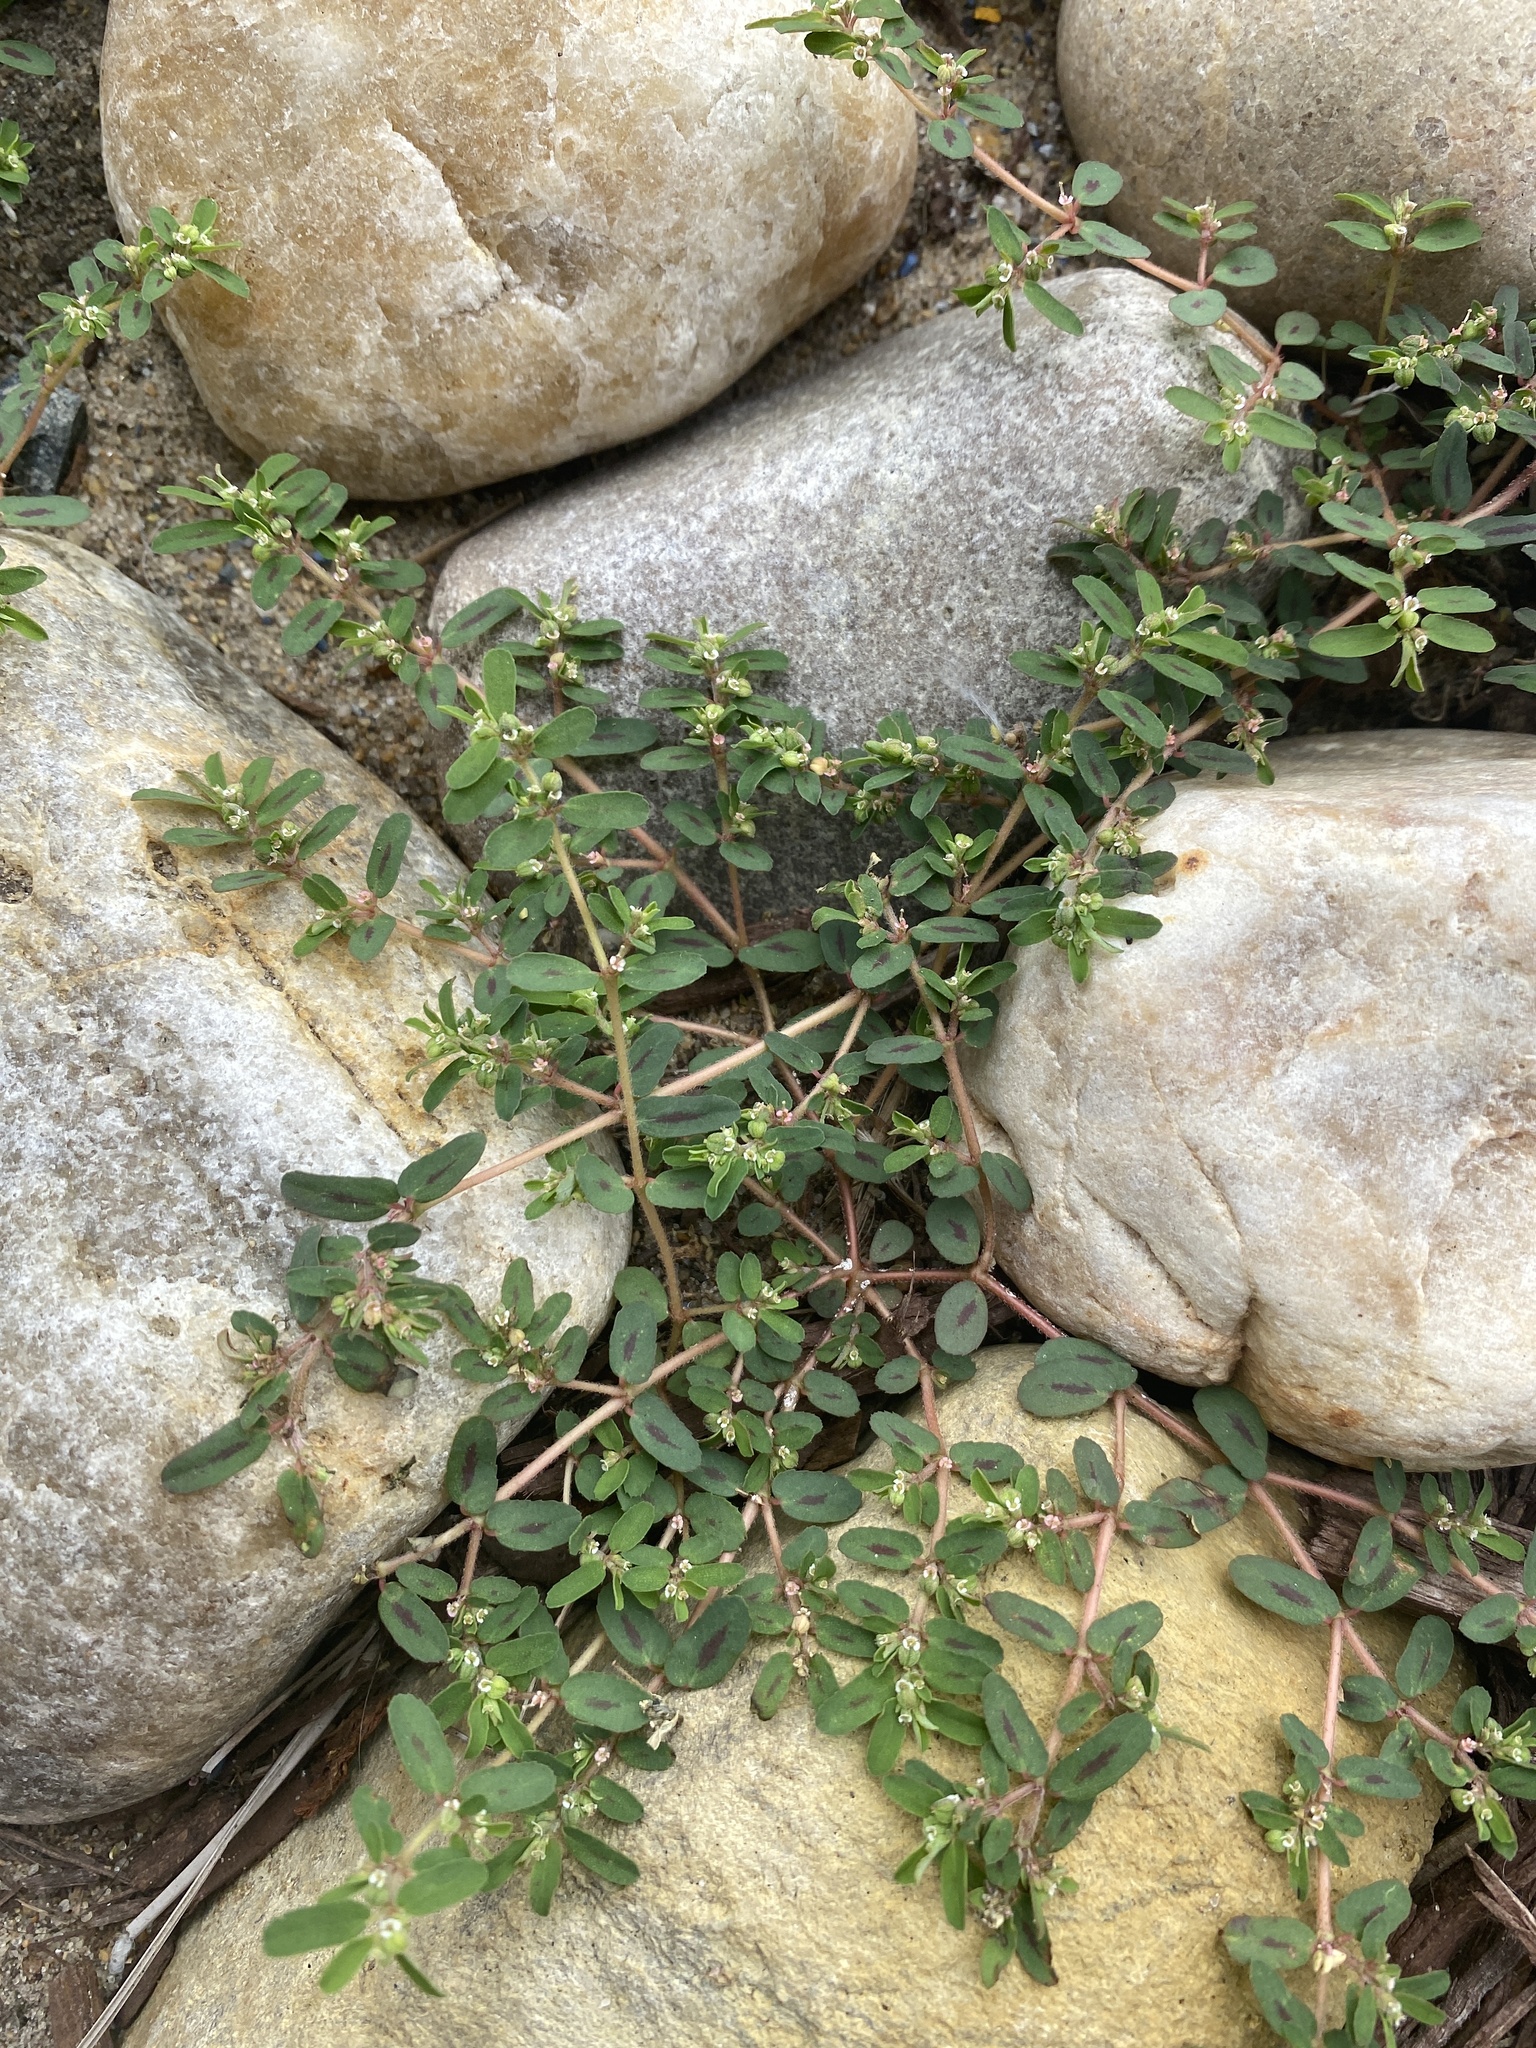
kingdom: Plantae
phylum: Tracheophyta
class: Magnoliopsida
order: Malpighiales
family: Euphorbiaceae
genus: Euphorbia
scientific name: Euphorbia maculata
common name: Spotted spurge
